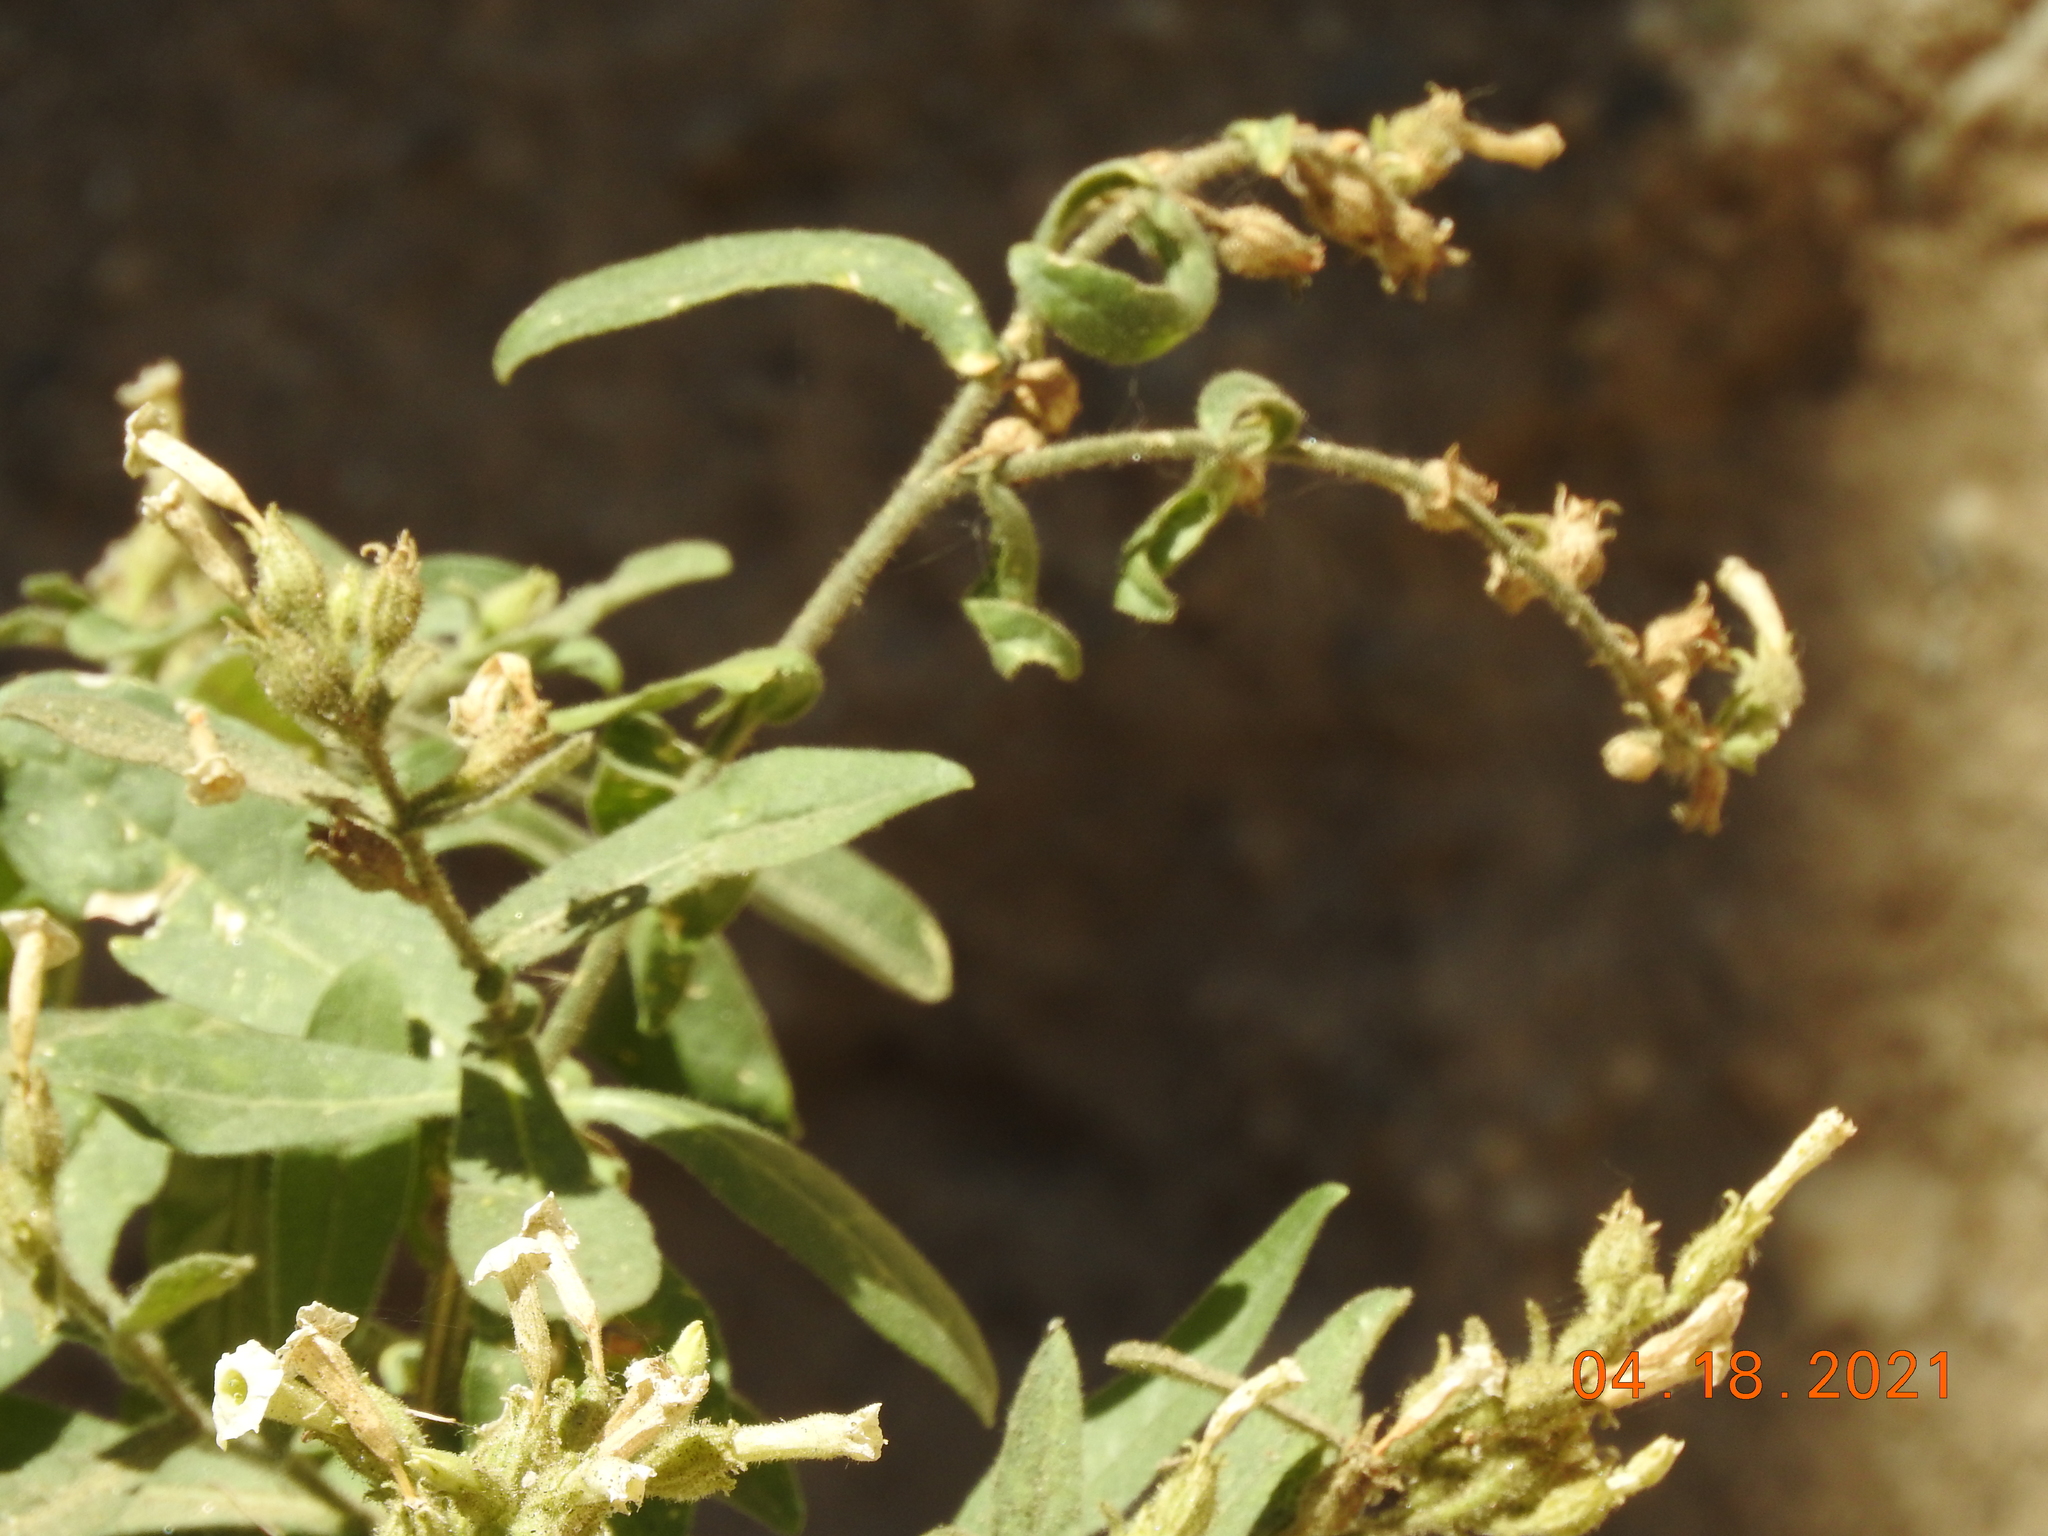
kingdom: Plantae
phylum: Tracheophyta
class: Magnoliopsida
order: Solanales
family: Solanaceae
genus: Nicotiana
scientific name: Nicotiana obtusifolia
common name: Desert tobacco
